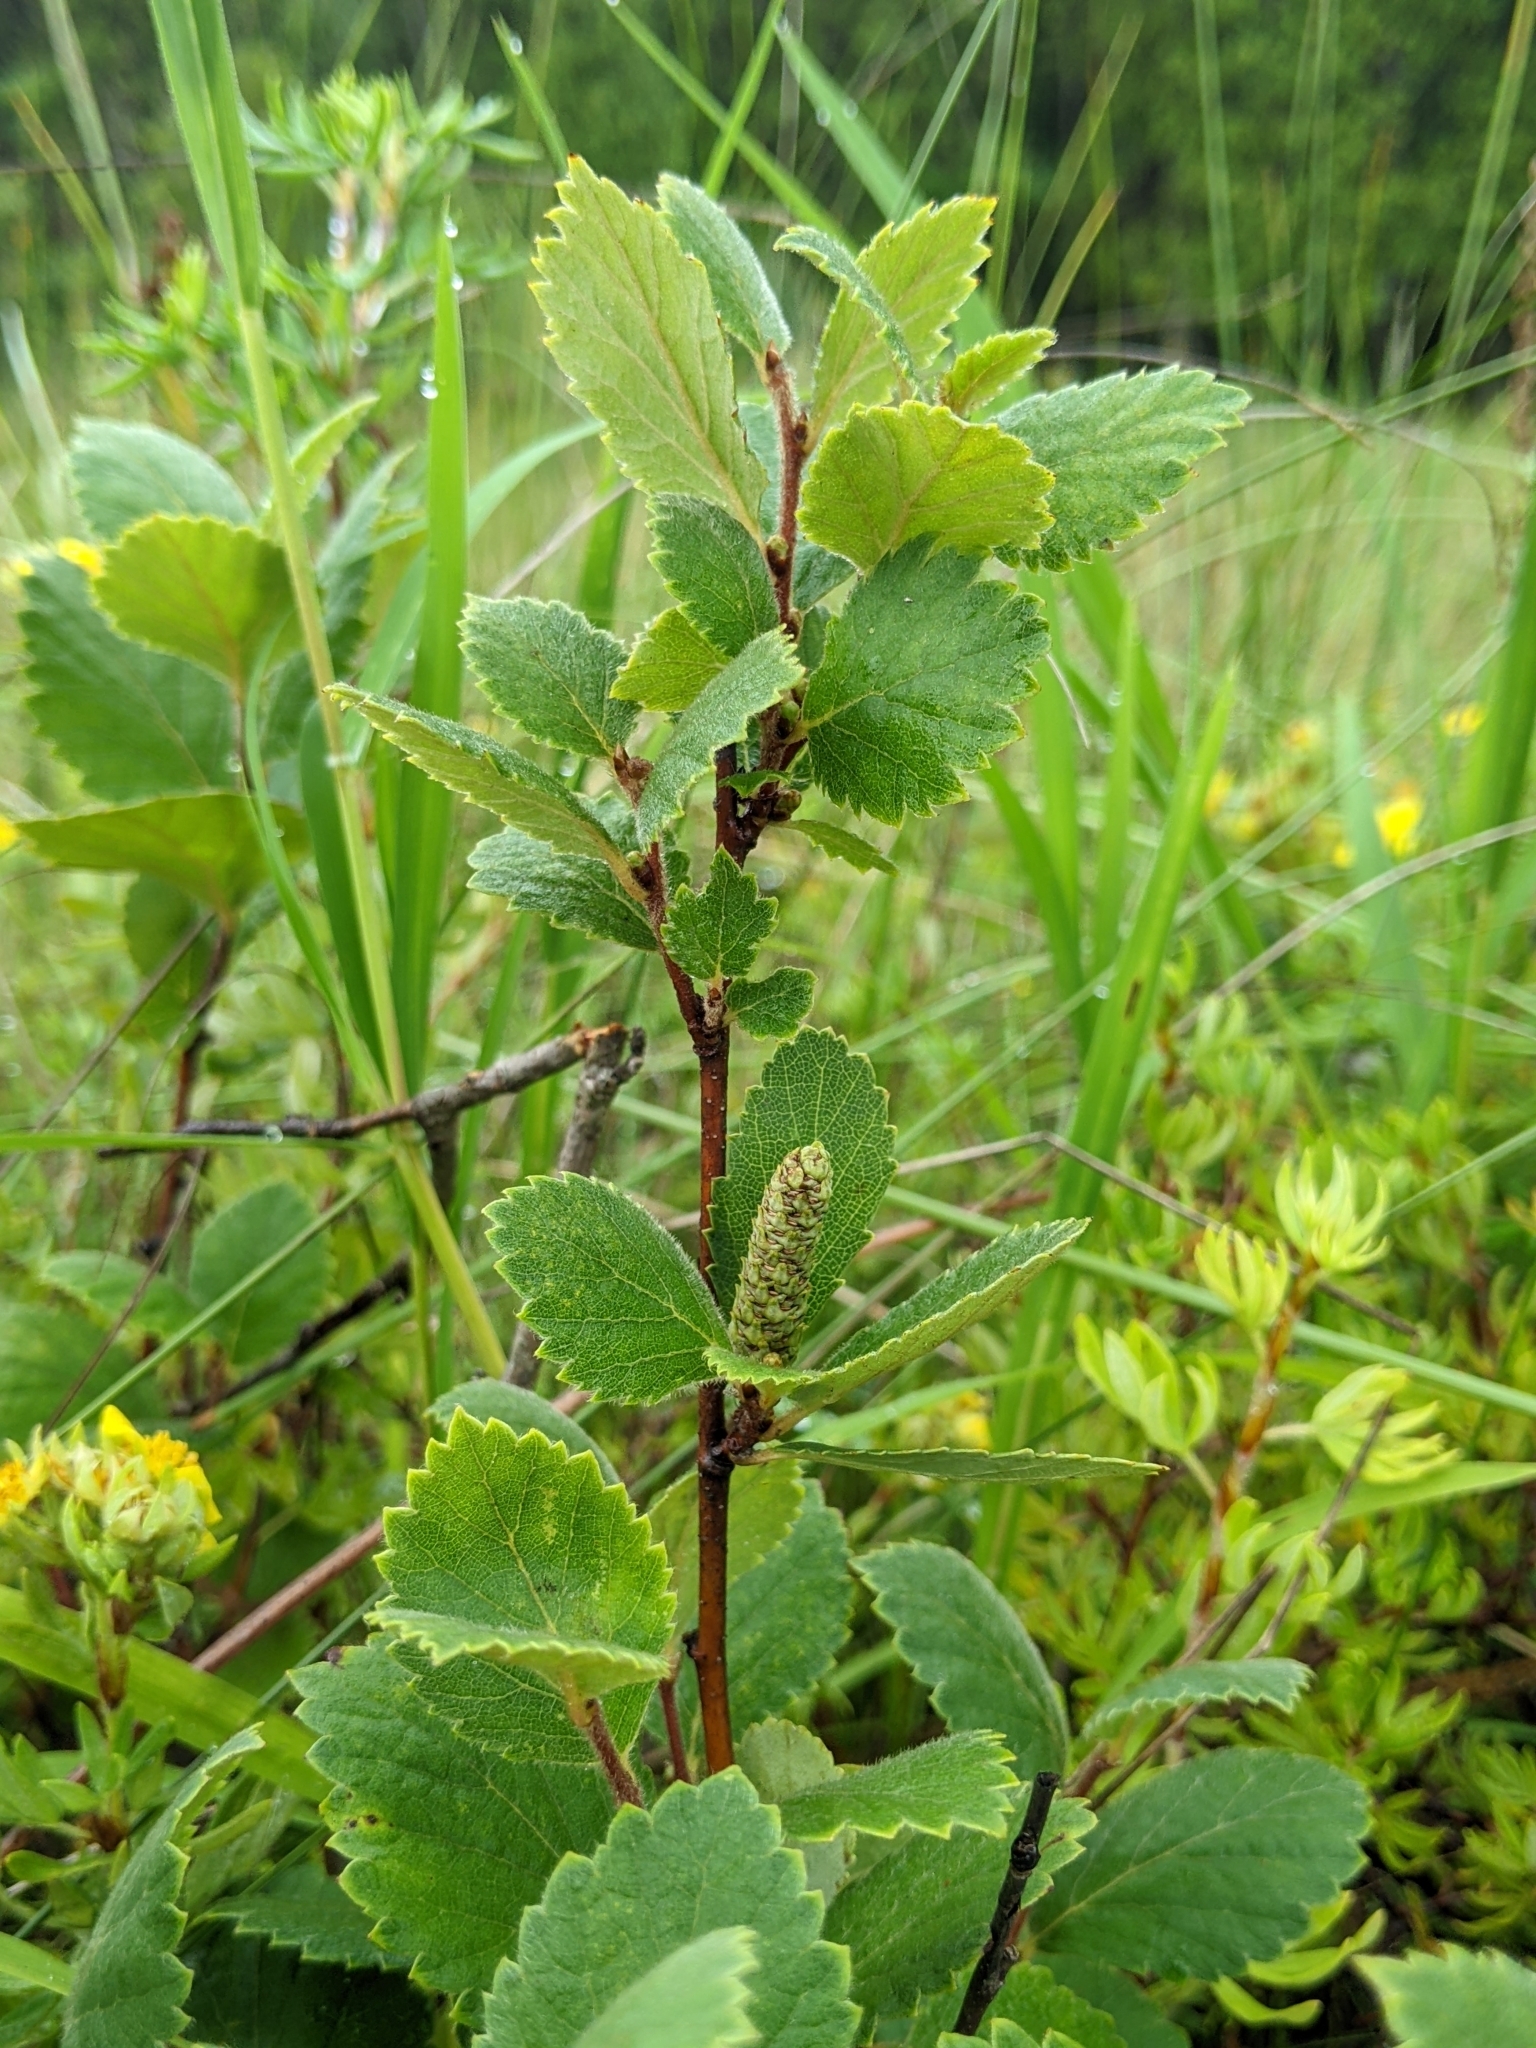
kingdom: Plantae
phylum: Tracheophyta
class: Magnoliopsida
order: Fagales
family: Betulaceae
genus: Betula
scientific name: Betula pumila
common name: Bog birch
